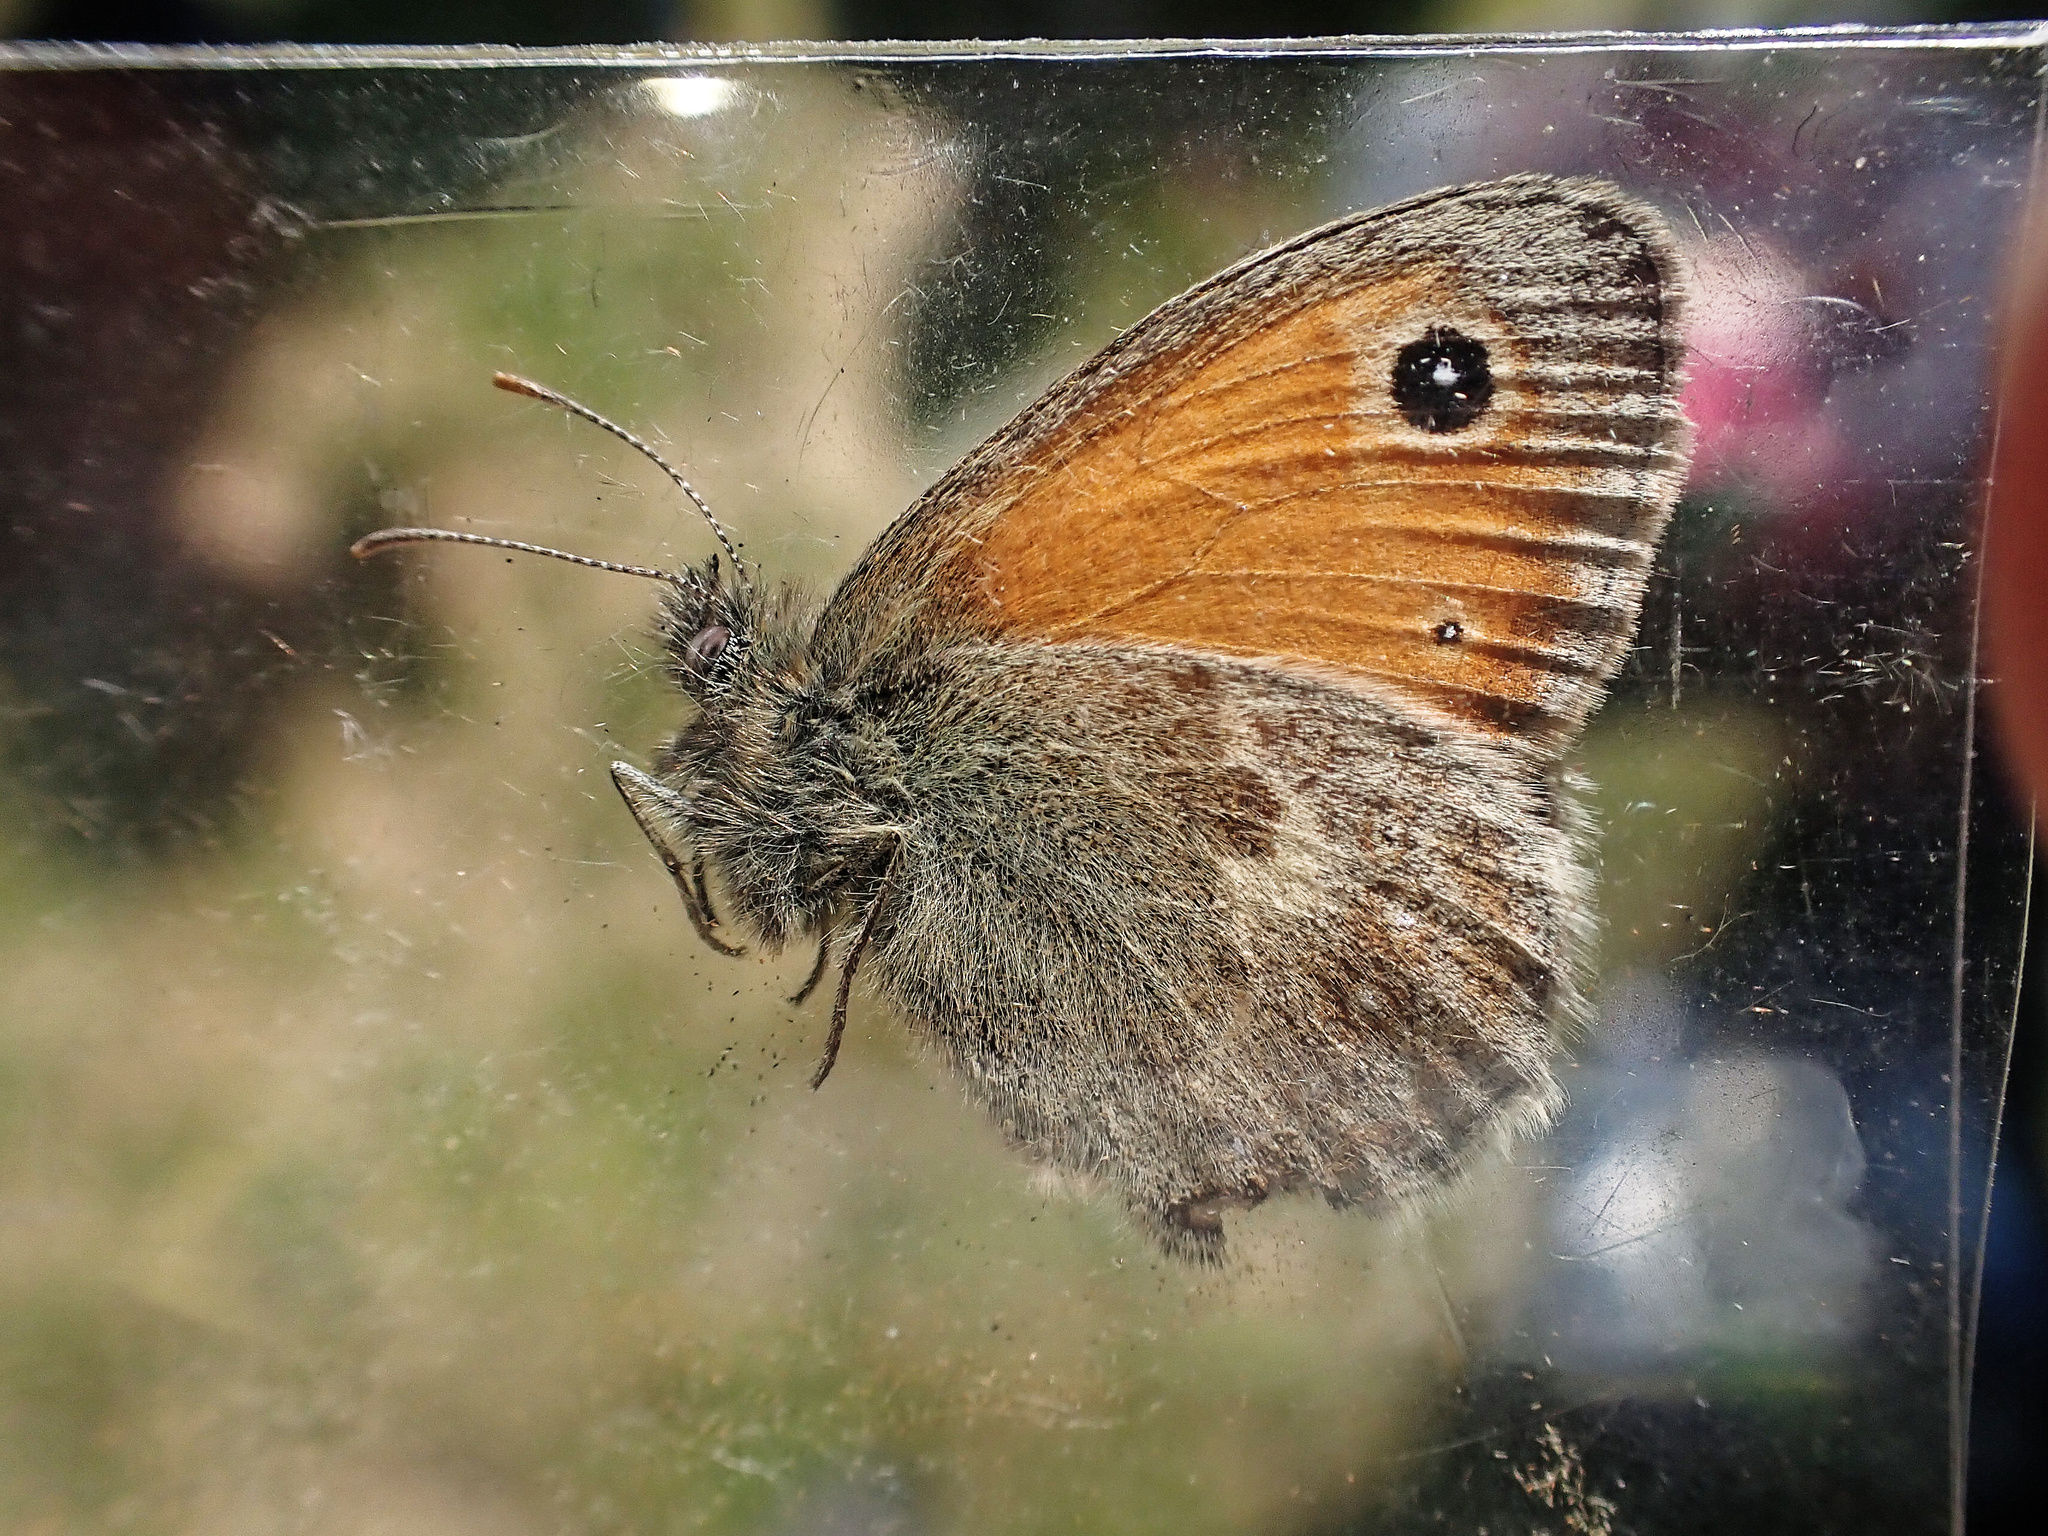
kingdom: Animalia
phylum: Arthropoda
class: Insecta
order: Lepidoptera
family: Nymphalidae
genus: Coenonympha
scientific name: Coenonympha pamphilus
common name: Small heath
